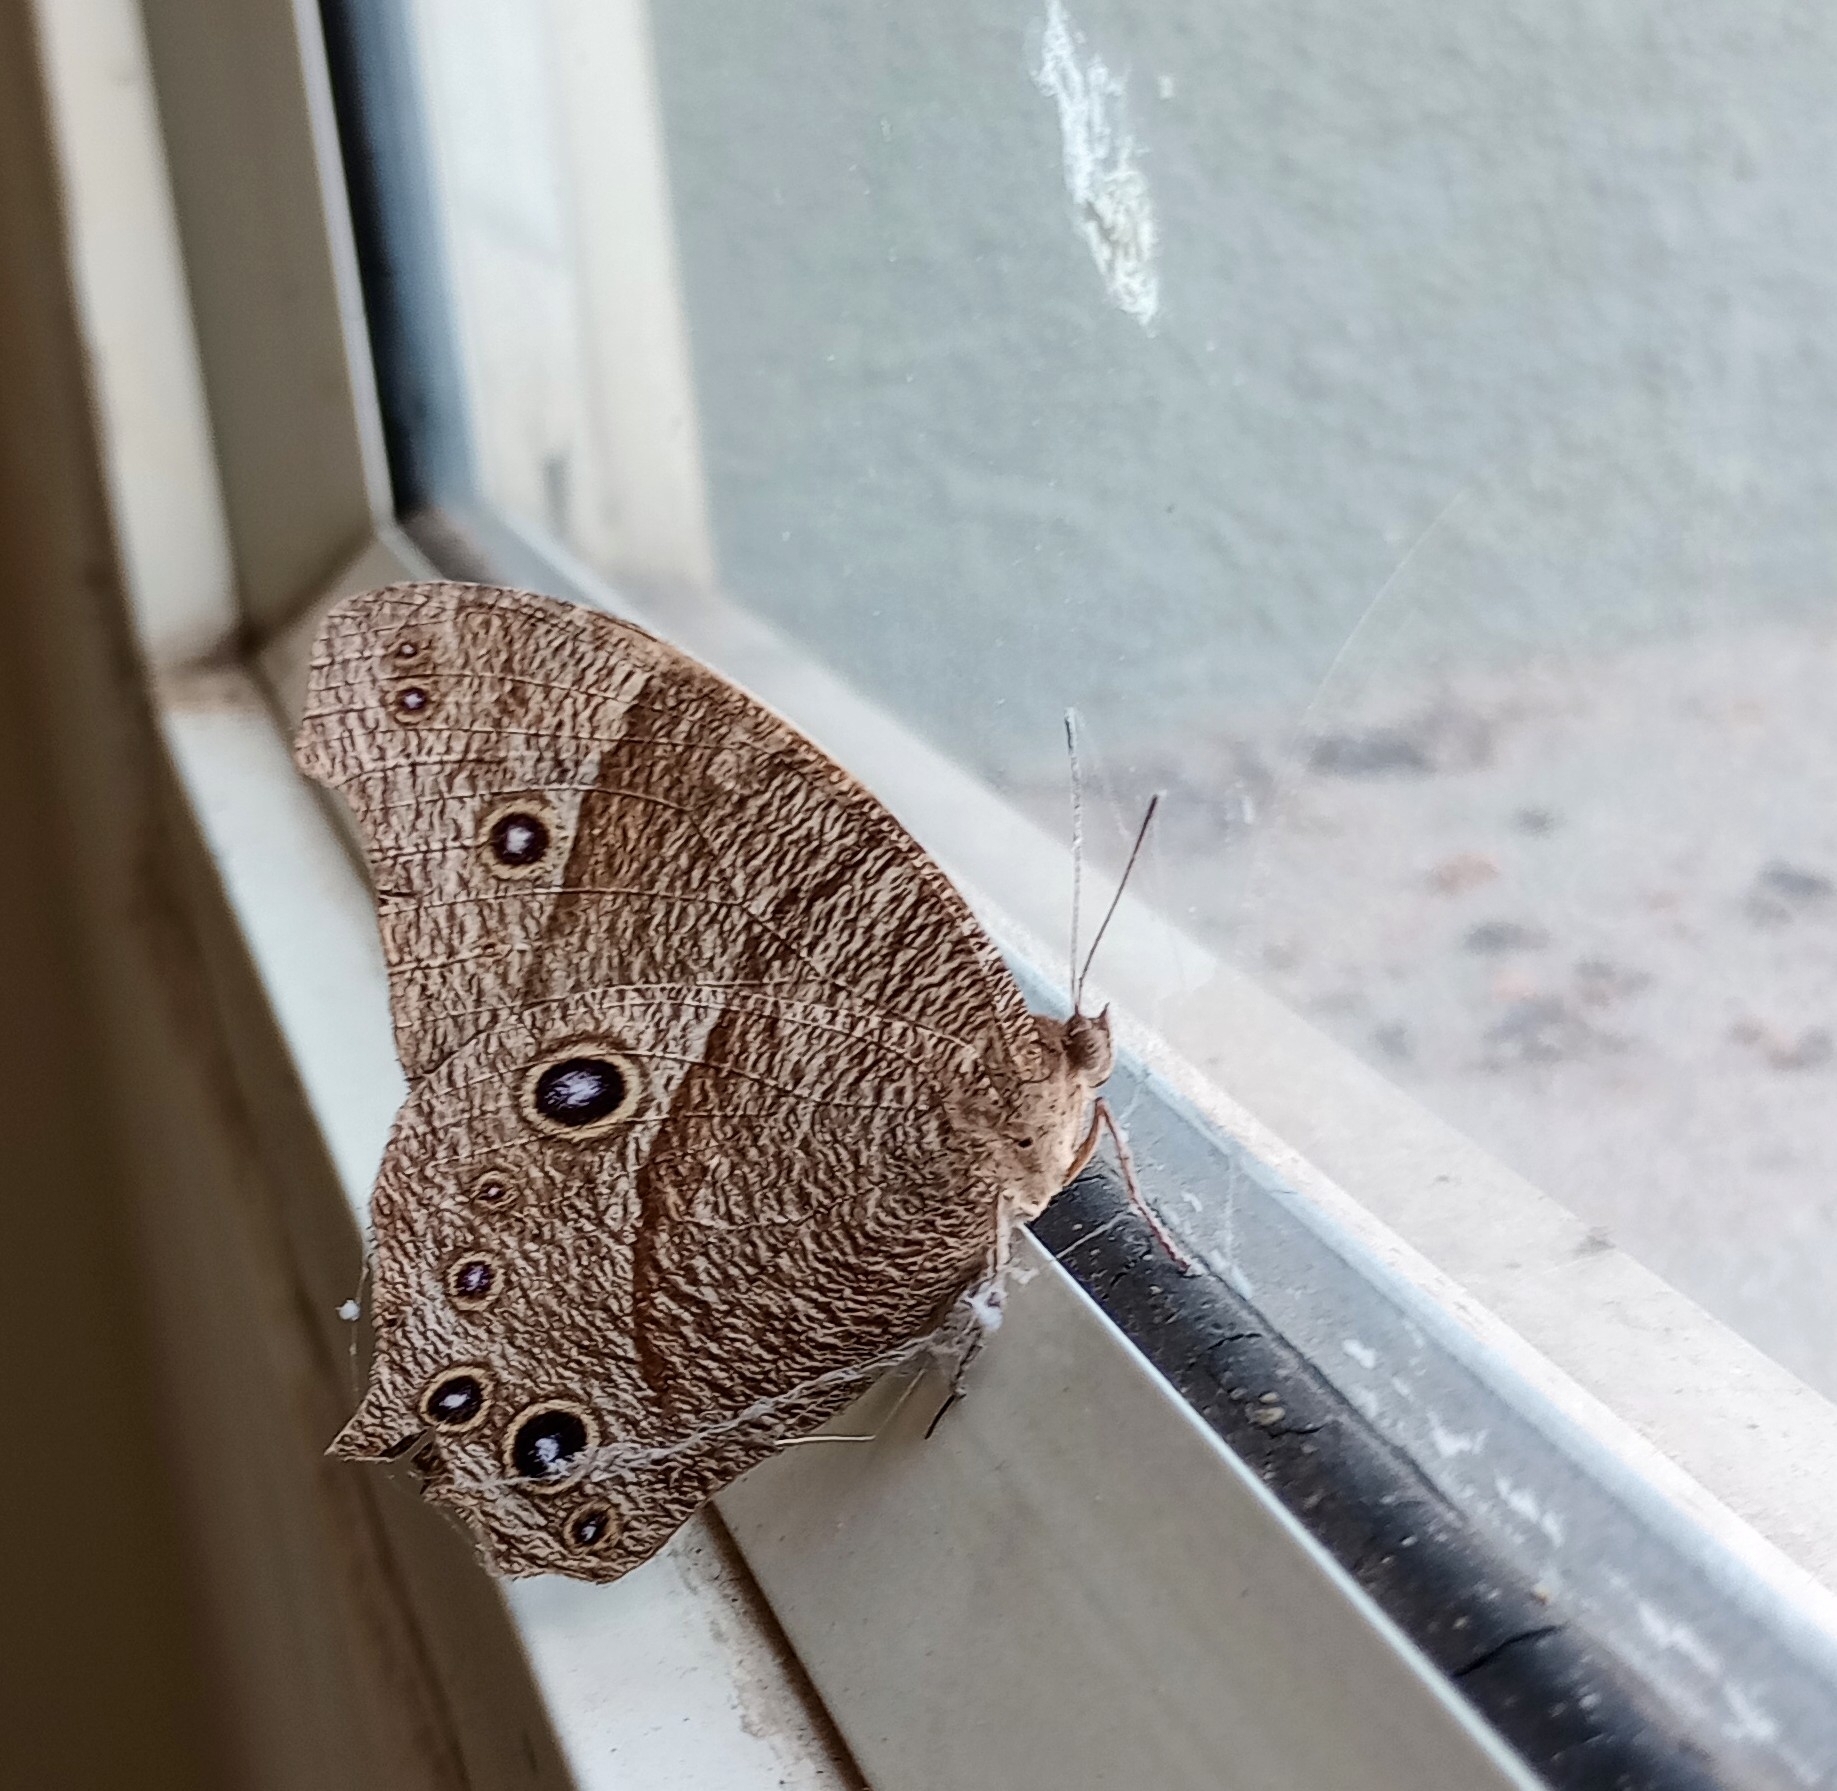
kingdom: Animalia
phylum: Arthropoda
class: Insecta
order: Lepidoptera
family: Nymphalidae
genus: Melanitis
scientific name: Melanitis leda
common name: Twilight brown
